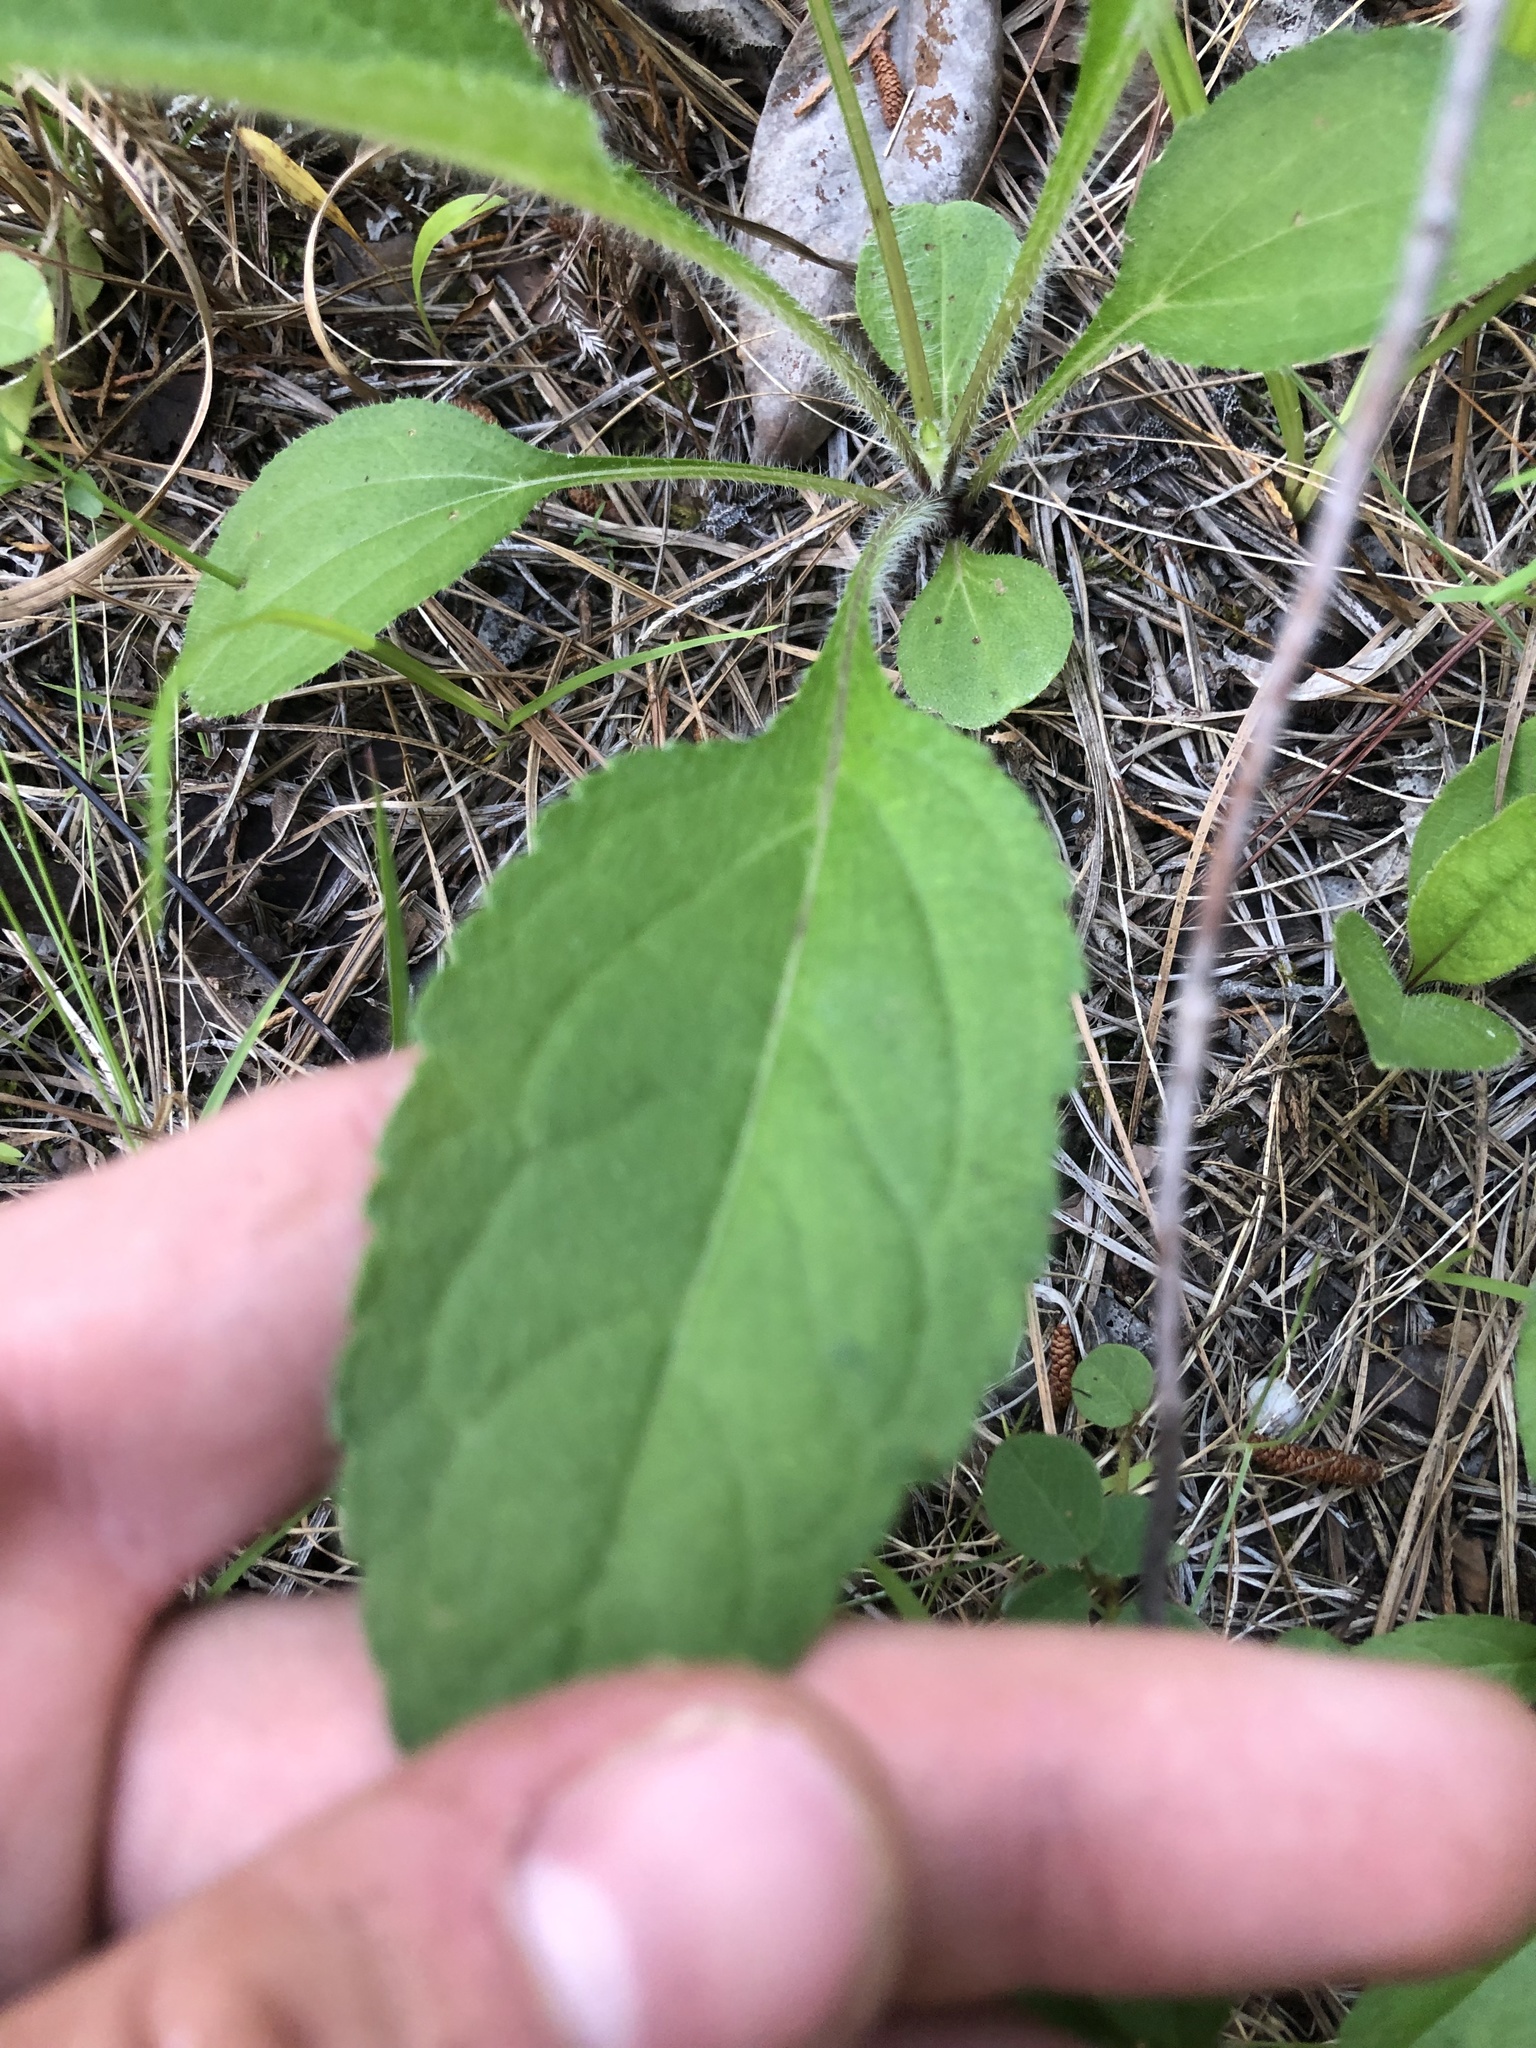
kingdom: Plantae
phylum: Tracheophyta
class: Magnoliopsida
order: Asterales
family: Asteraceae
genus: Helianthus
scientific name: Helianthus atrorubens
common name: Dark-eyed sunflower
